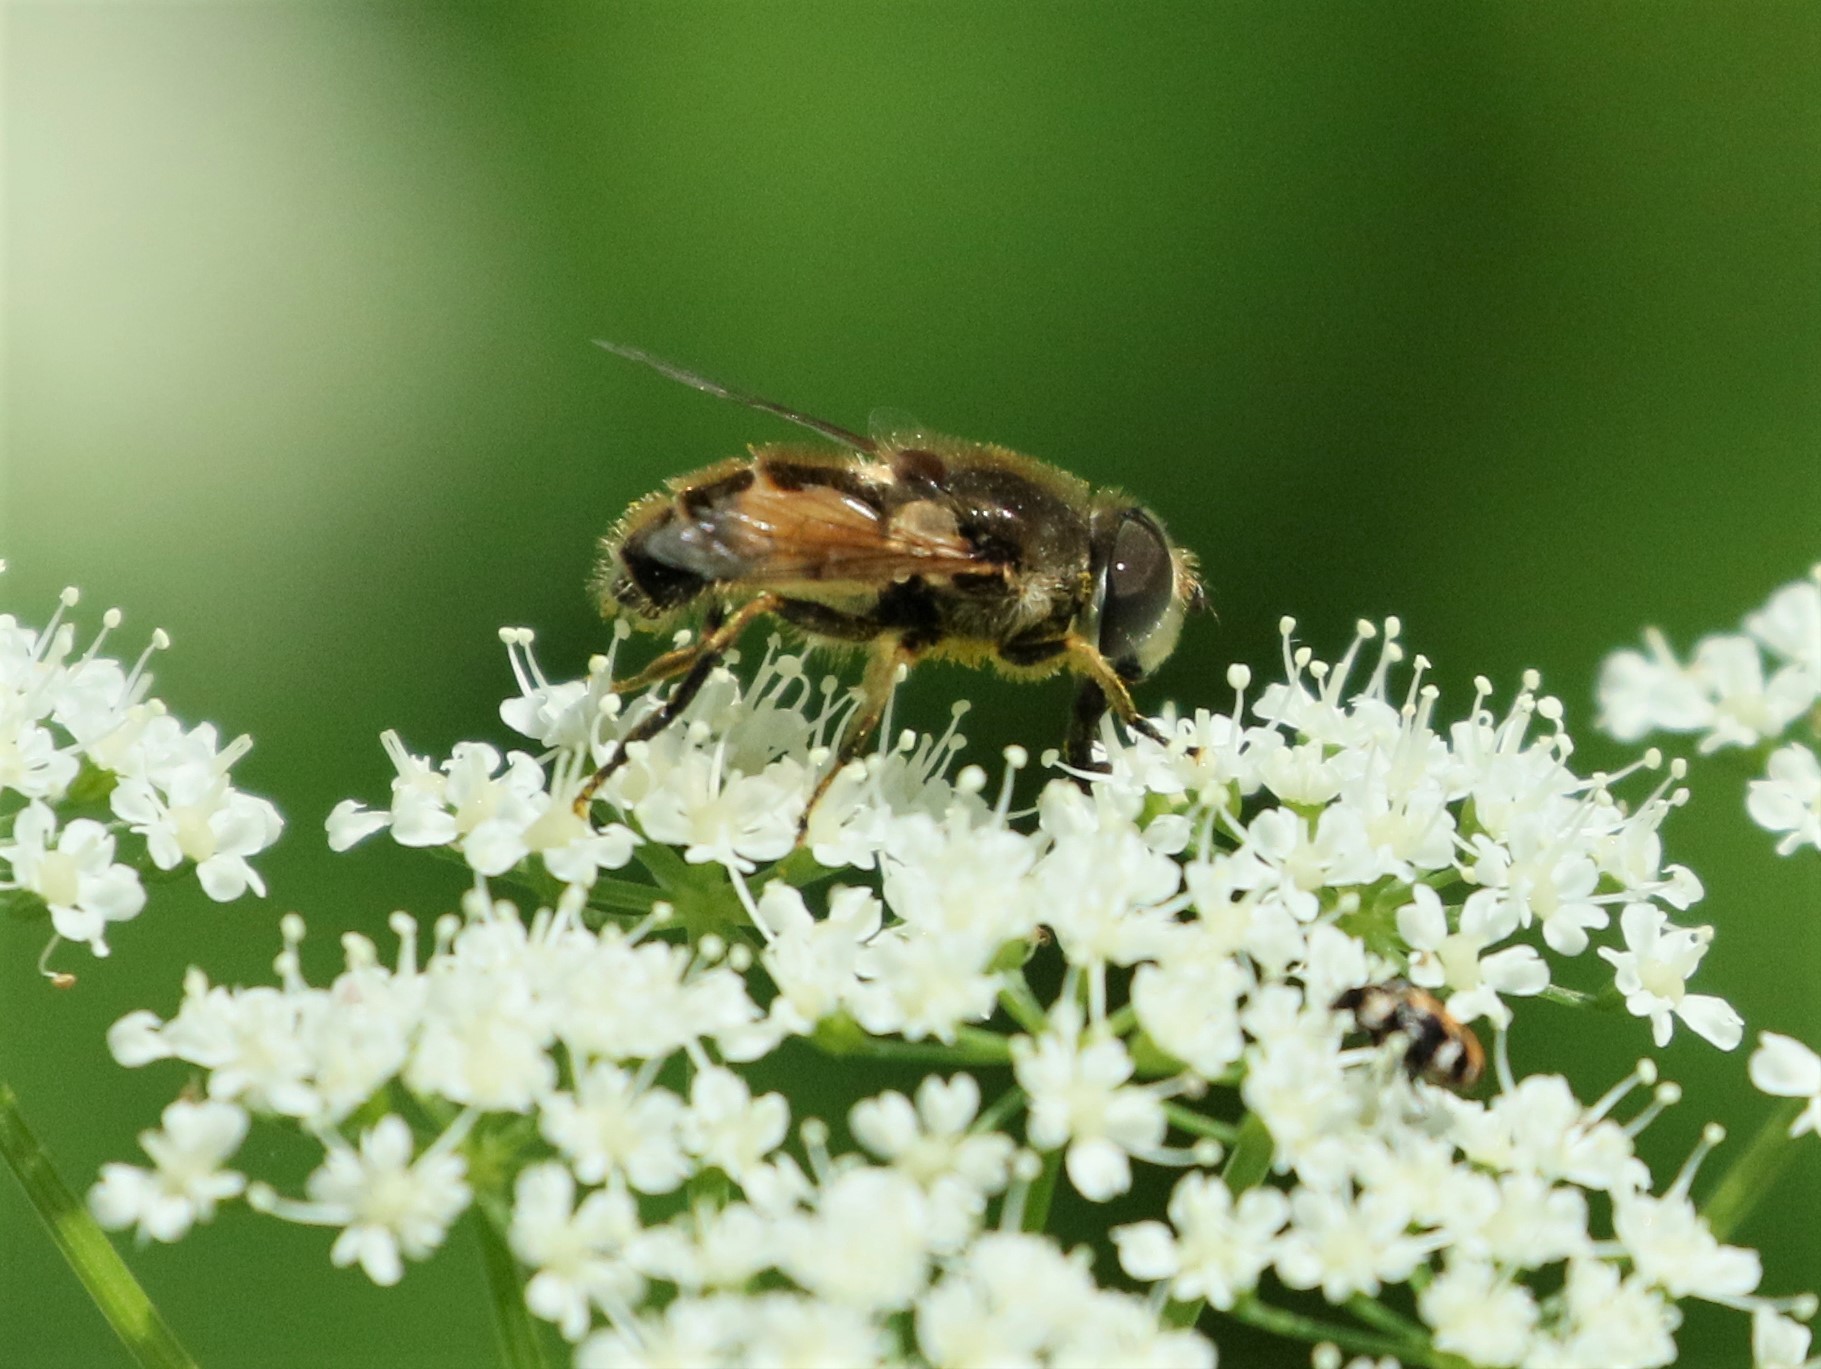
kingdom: Animalia
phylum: Arthropoda
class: Insecta
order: Diptera
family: Syrphidae
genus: Eristalis
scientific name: Eristalis arbustorum
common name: Hover fly
